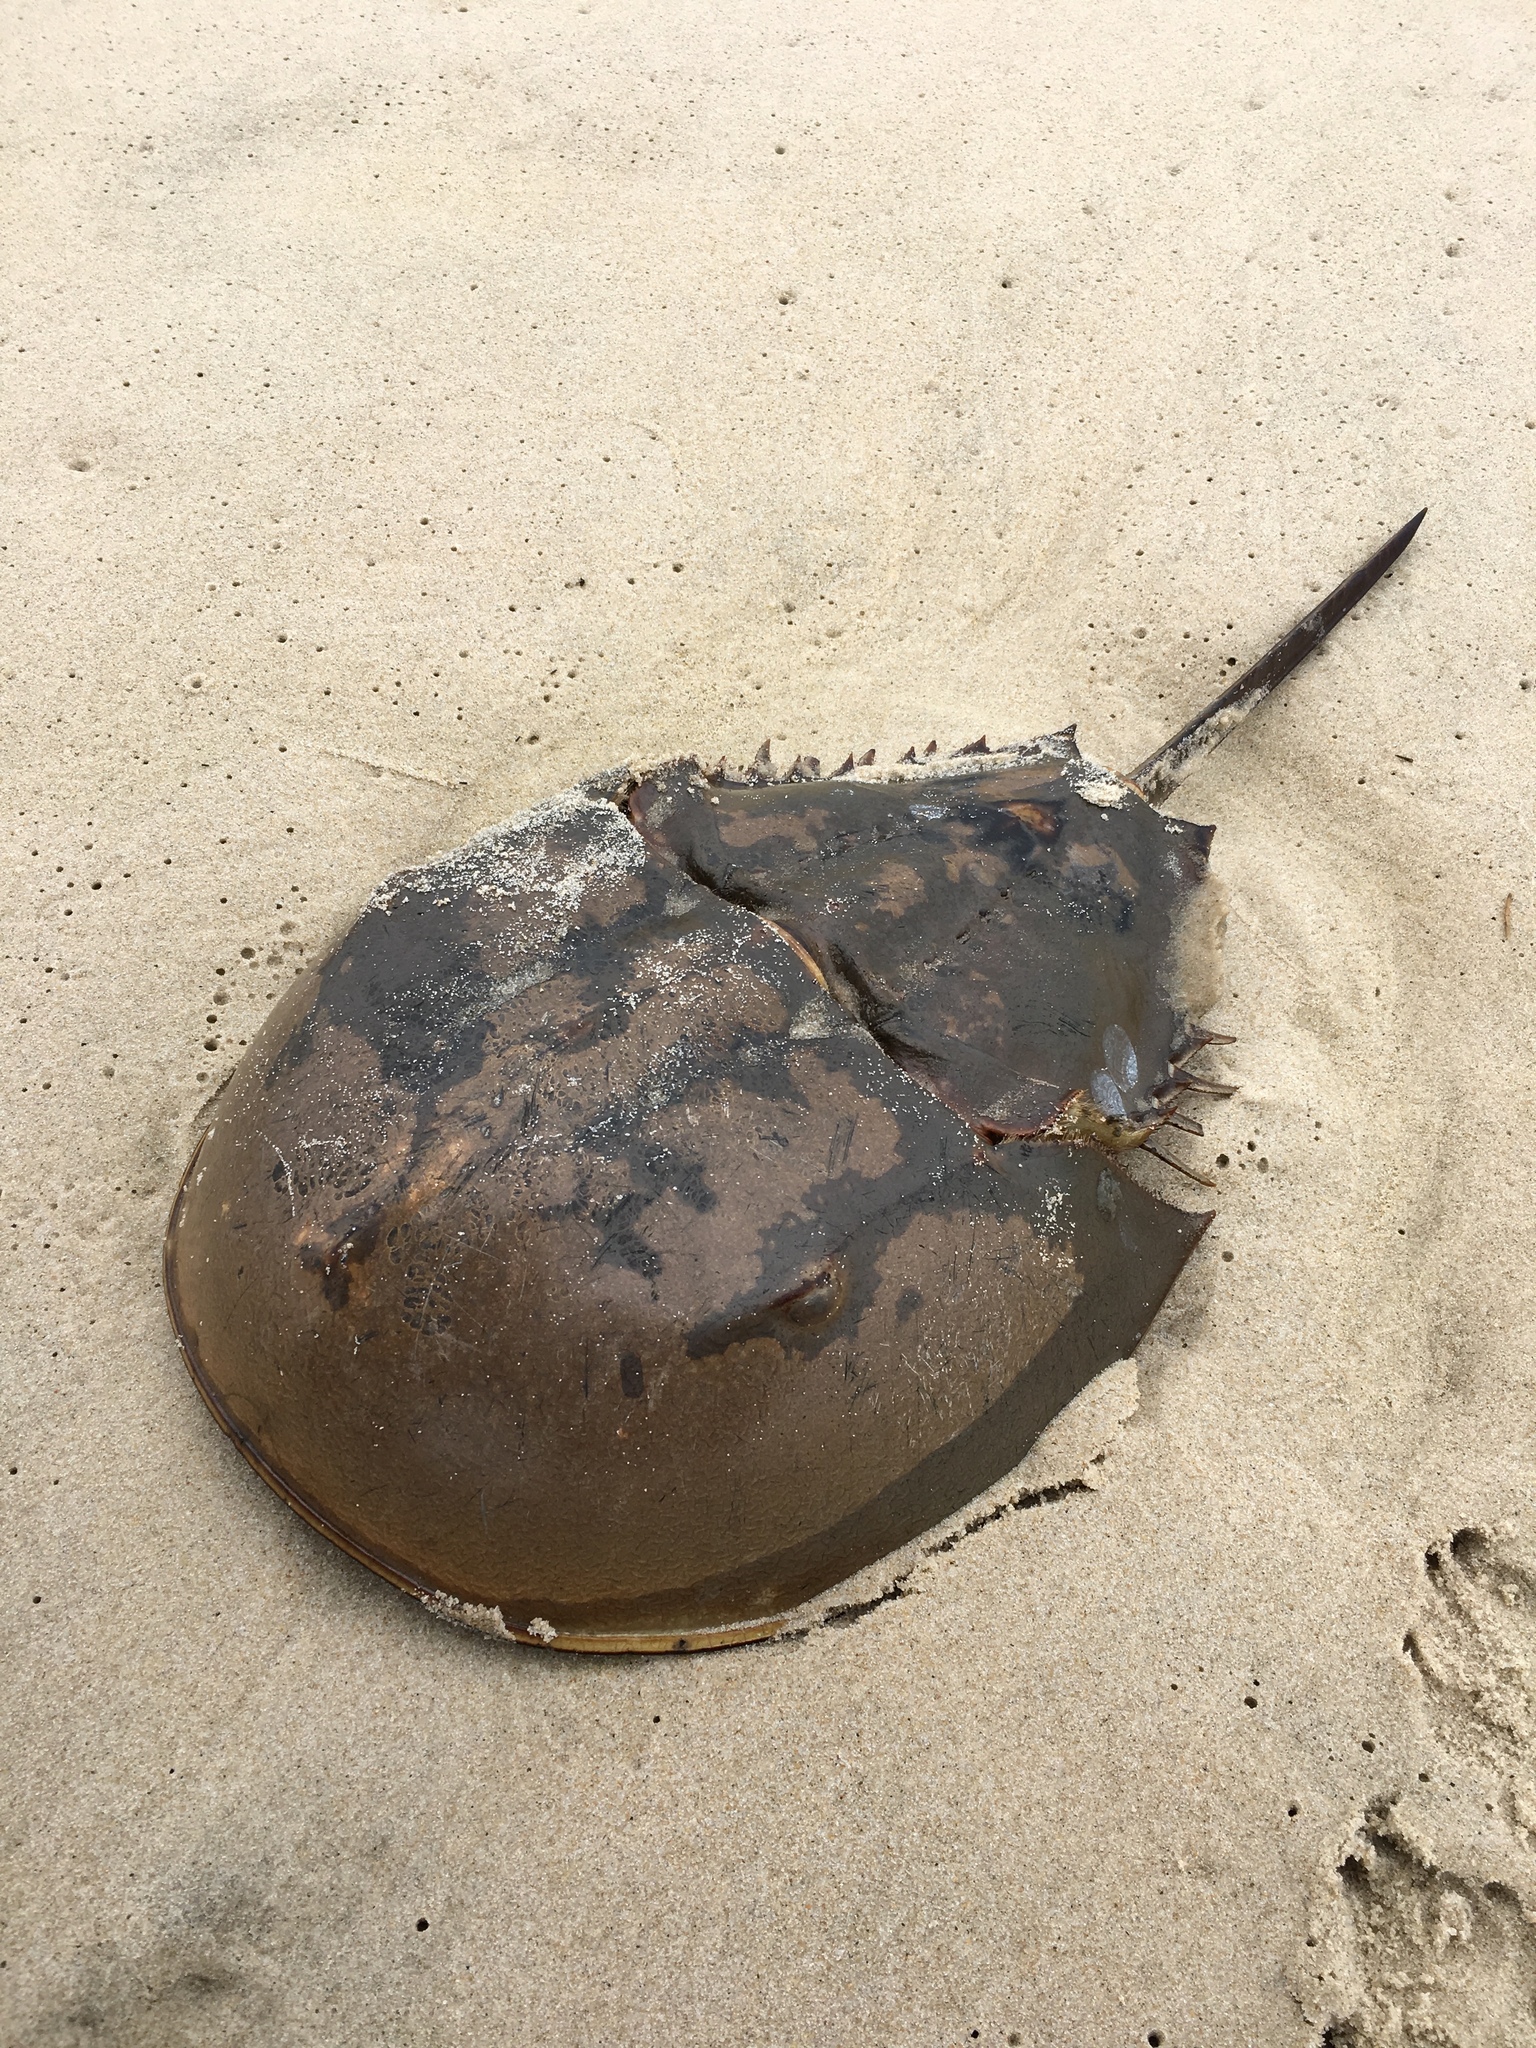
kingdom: Animalia
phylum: Arthropoda
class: Merostomata
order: Xiphosurida
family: Limulidae
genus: Limulus
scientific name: Limulus polyphemus
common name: Horseshoe crab
